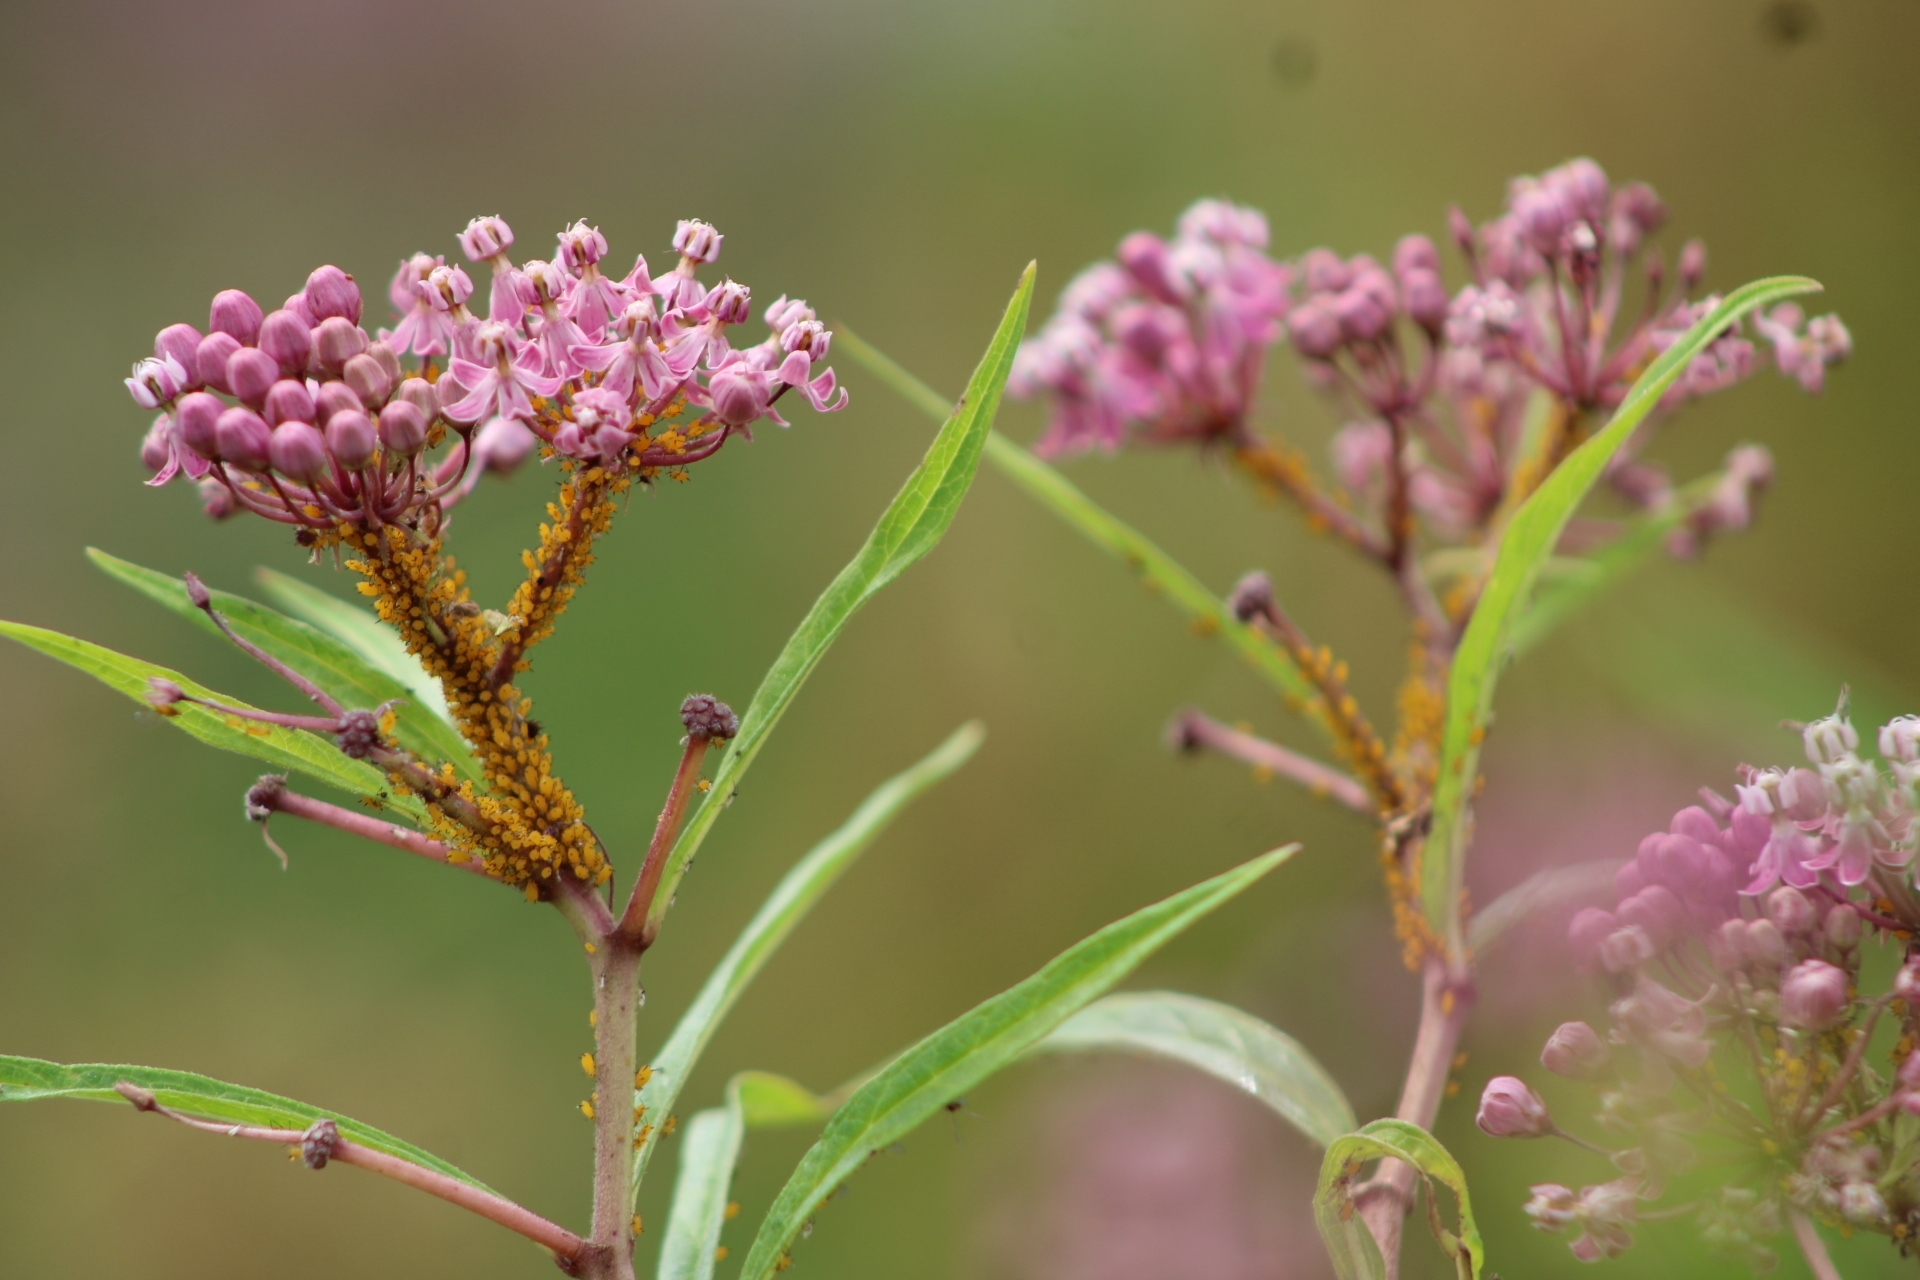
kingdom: Animalia
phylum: Arthropoda
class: Insecta
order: Hemiptera
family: Aphididae
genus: Aphis
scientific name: Aphis nerii
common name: Oleander aphid
